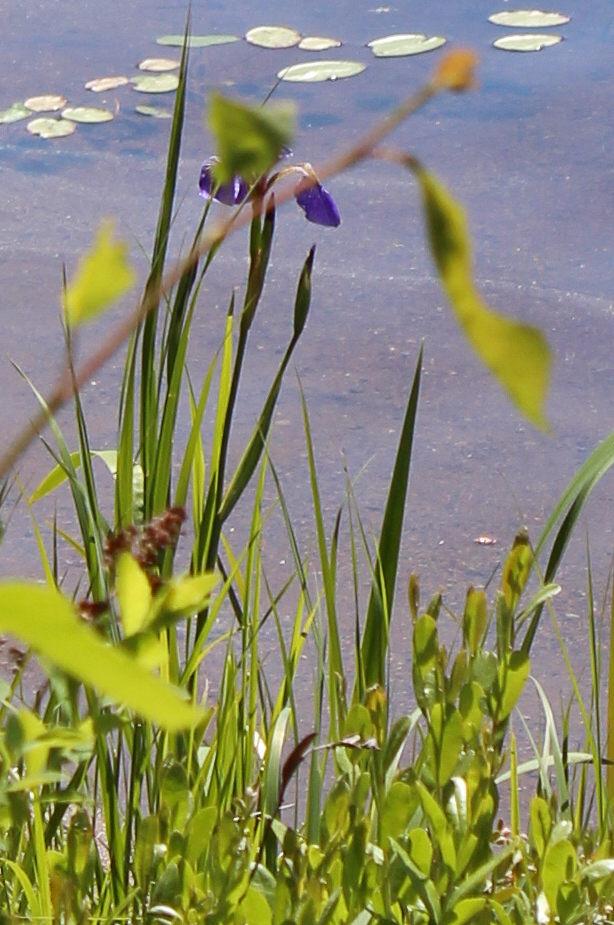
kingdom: Plantae
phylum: Tracheophyta
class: Liliopsida
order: Asparagales
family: Iridaceae
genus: Iris
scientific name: Iris versicolor
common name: Purple iris
